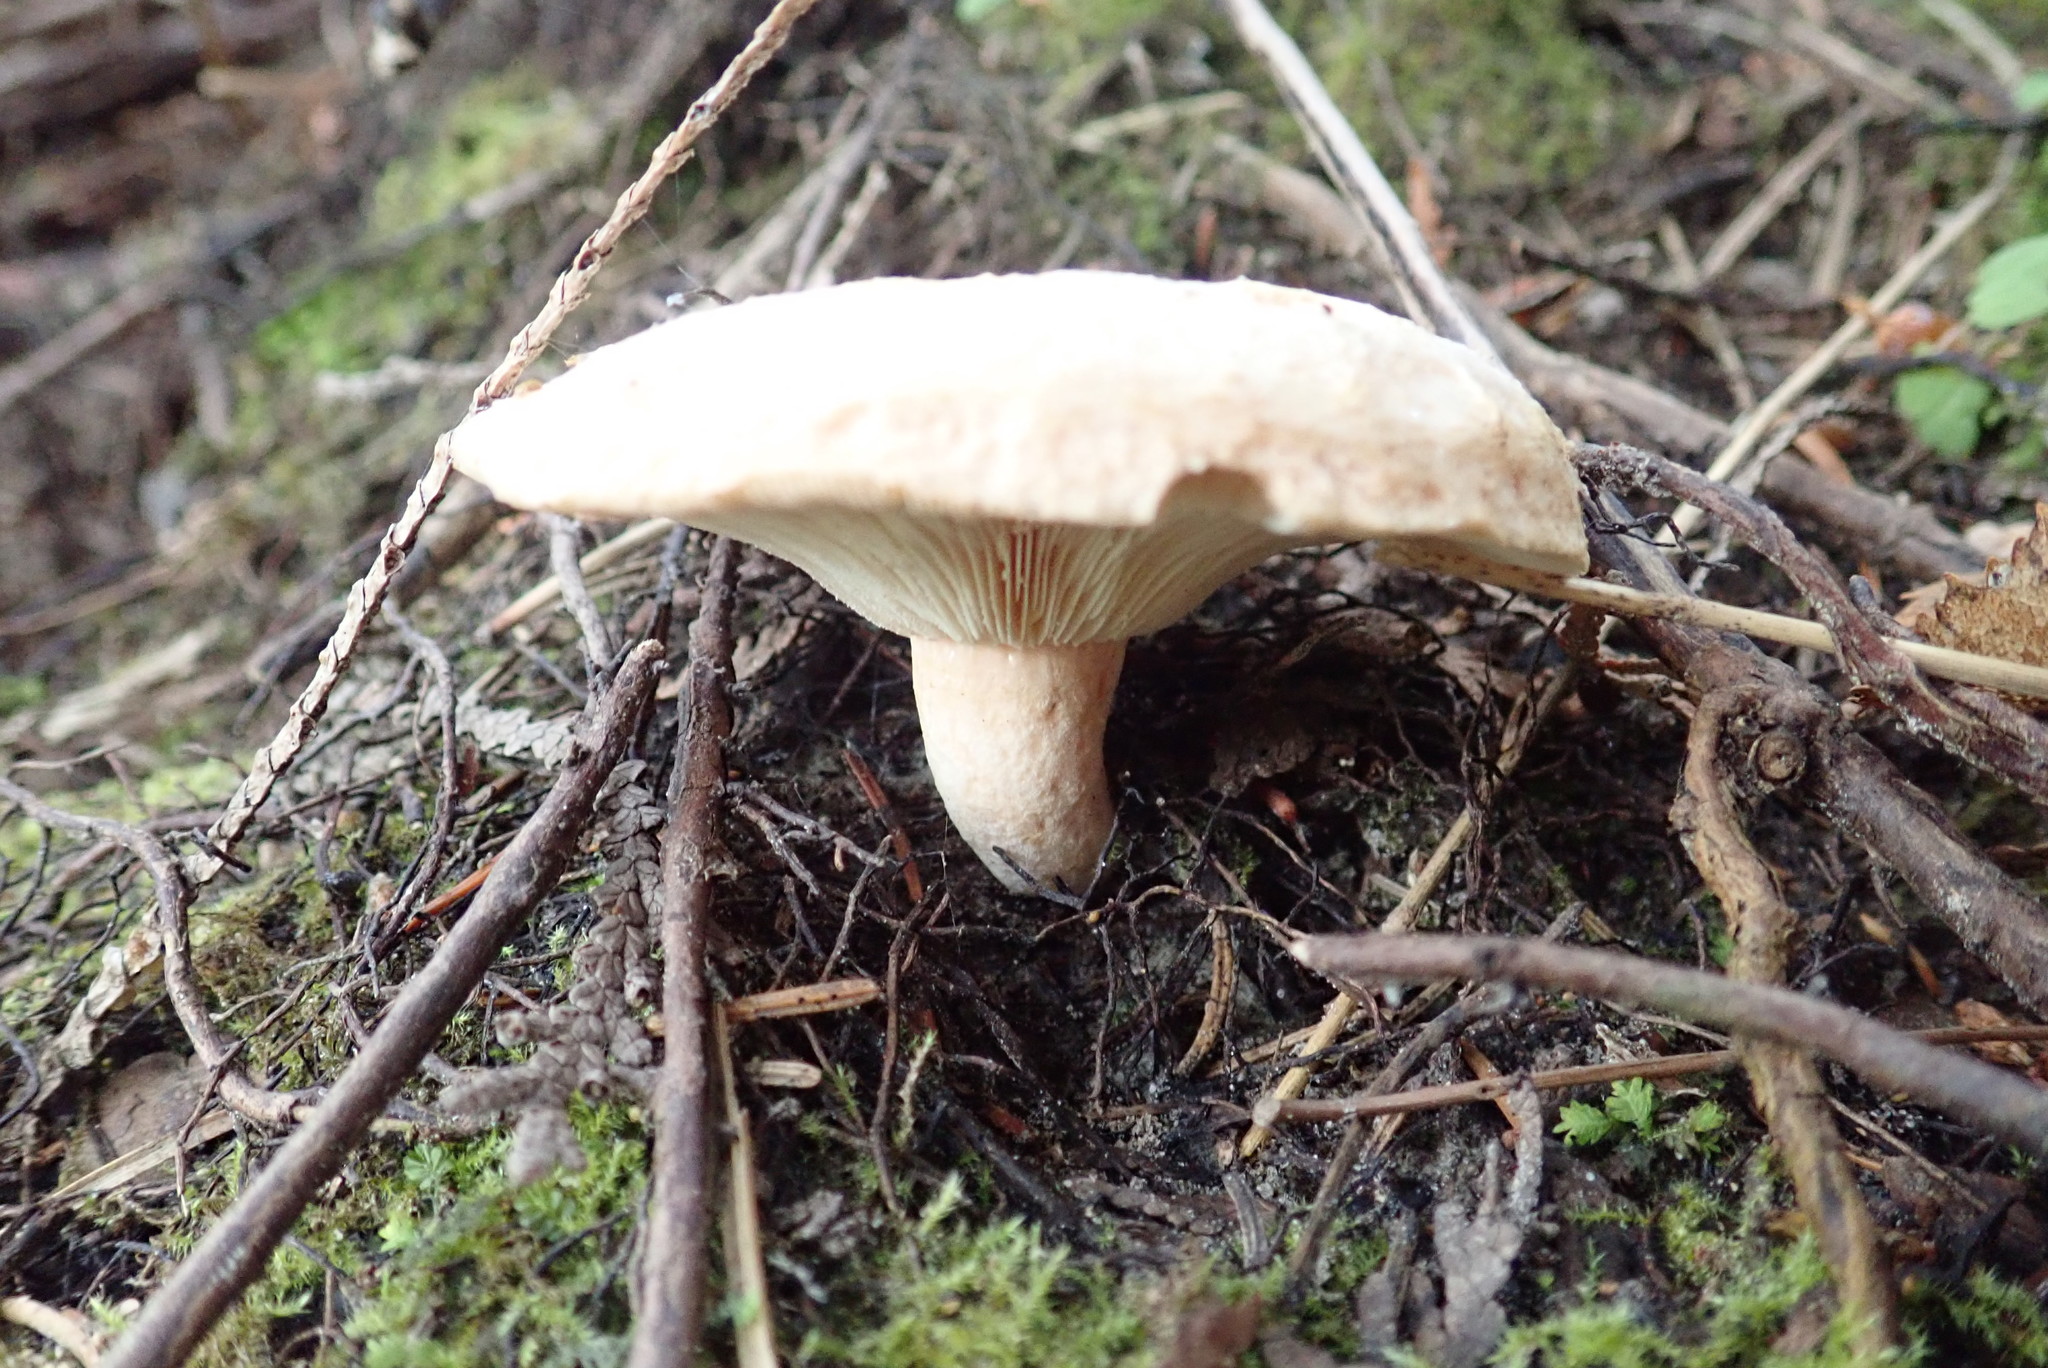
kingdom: Fungi
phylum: Basidiomycota
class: Agaricomycetes
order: Russulales
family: Russulaceae
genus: Lactarius
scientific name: Lactarius pubescens
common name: Bearded milkcap
